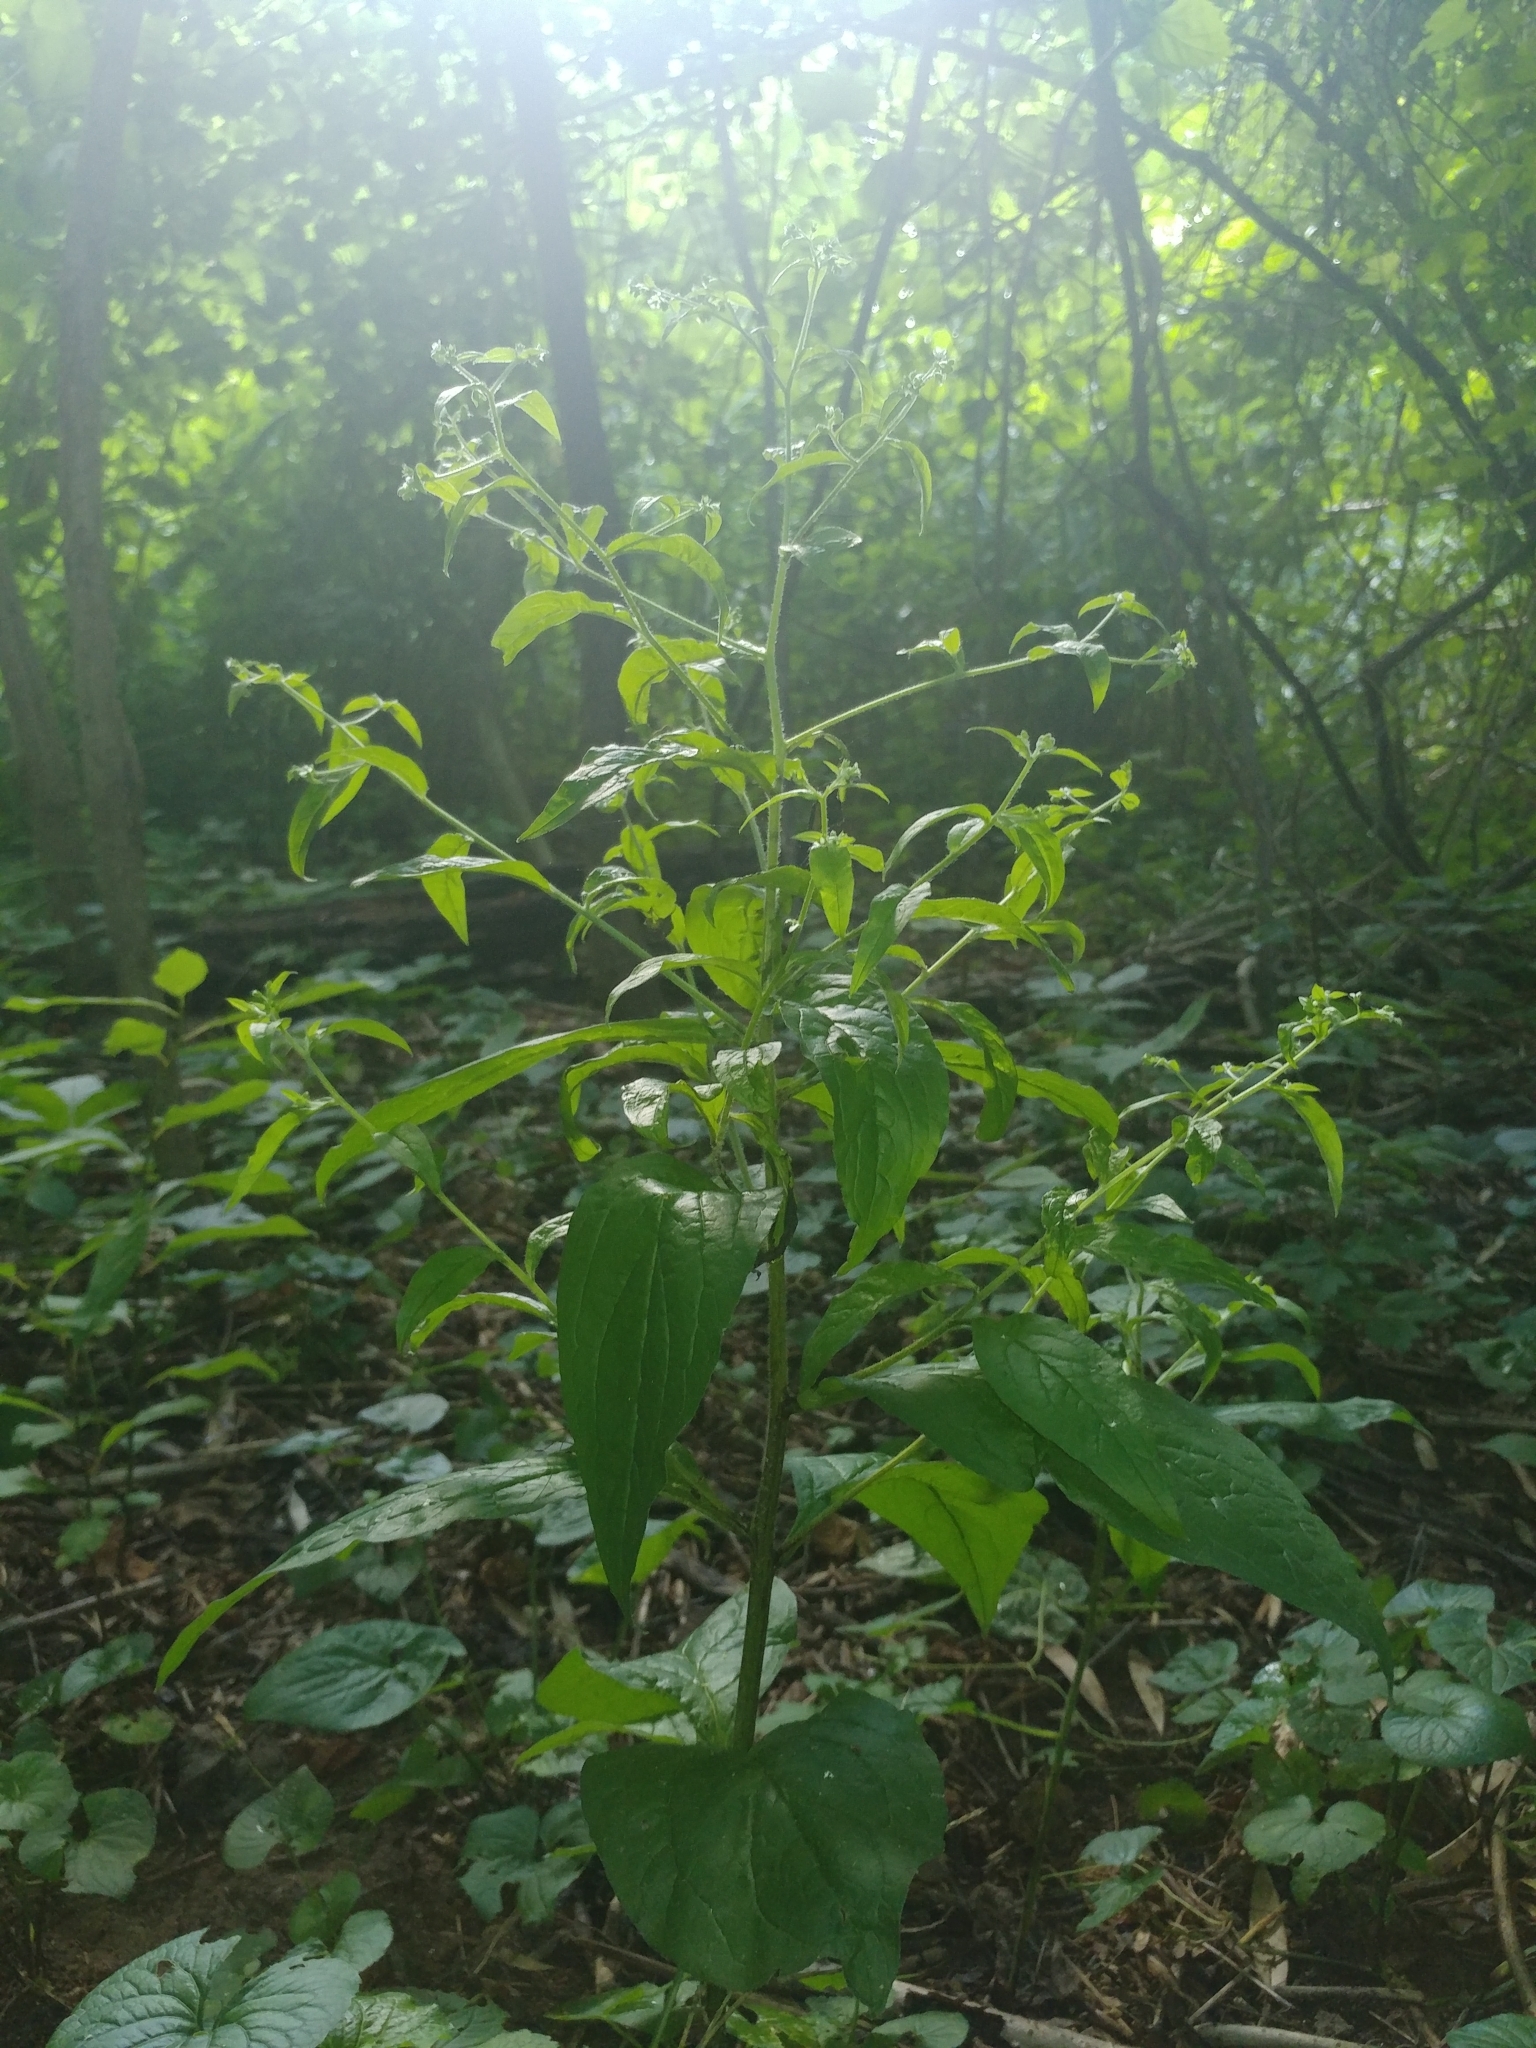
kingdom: Plantae
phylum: Tracheophyta
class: Magnoliopsida
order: Boraginales
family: Boraginaceae
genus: Hackelia
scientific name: Hackelia virginiana
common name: Beggar's-lice
